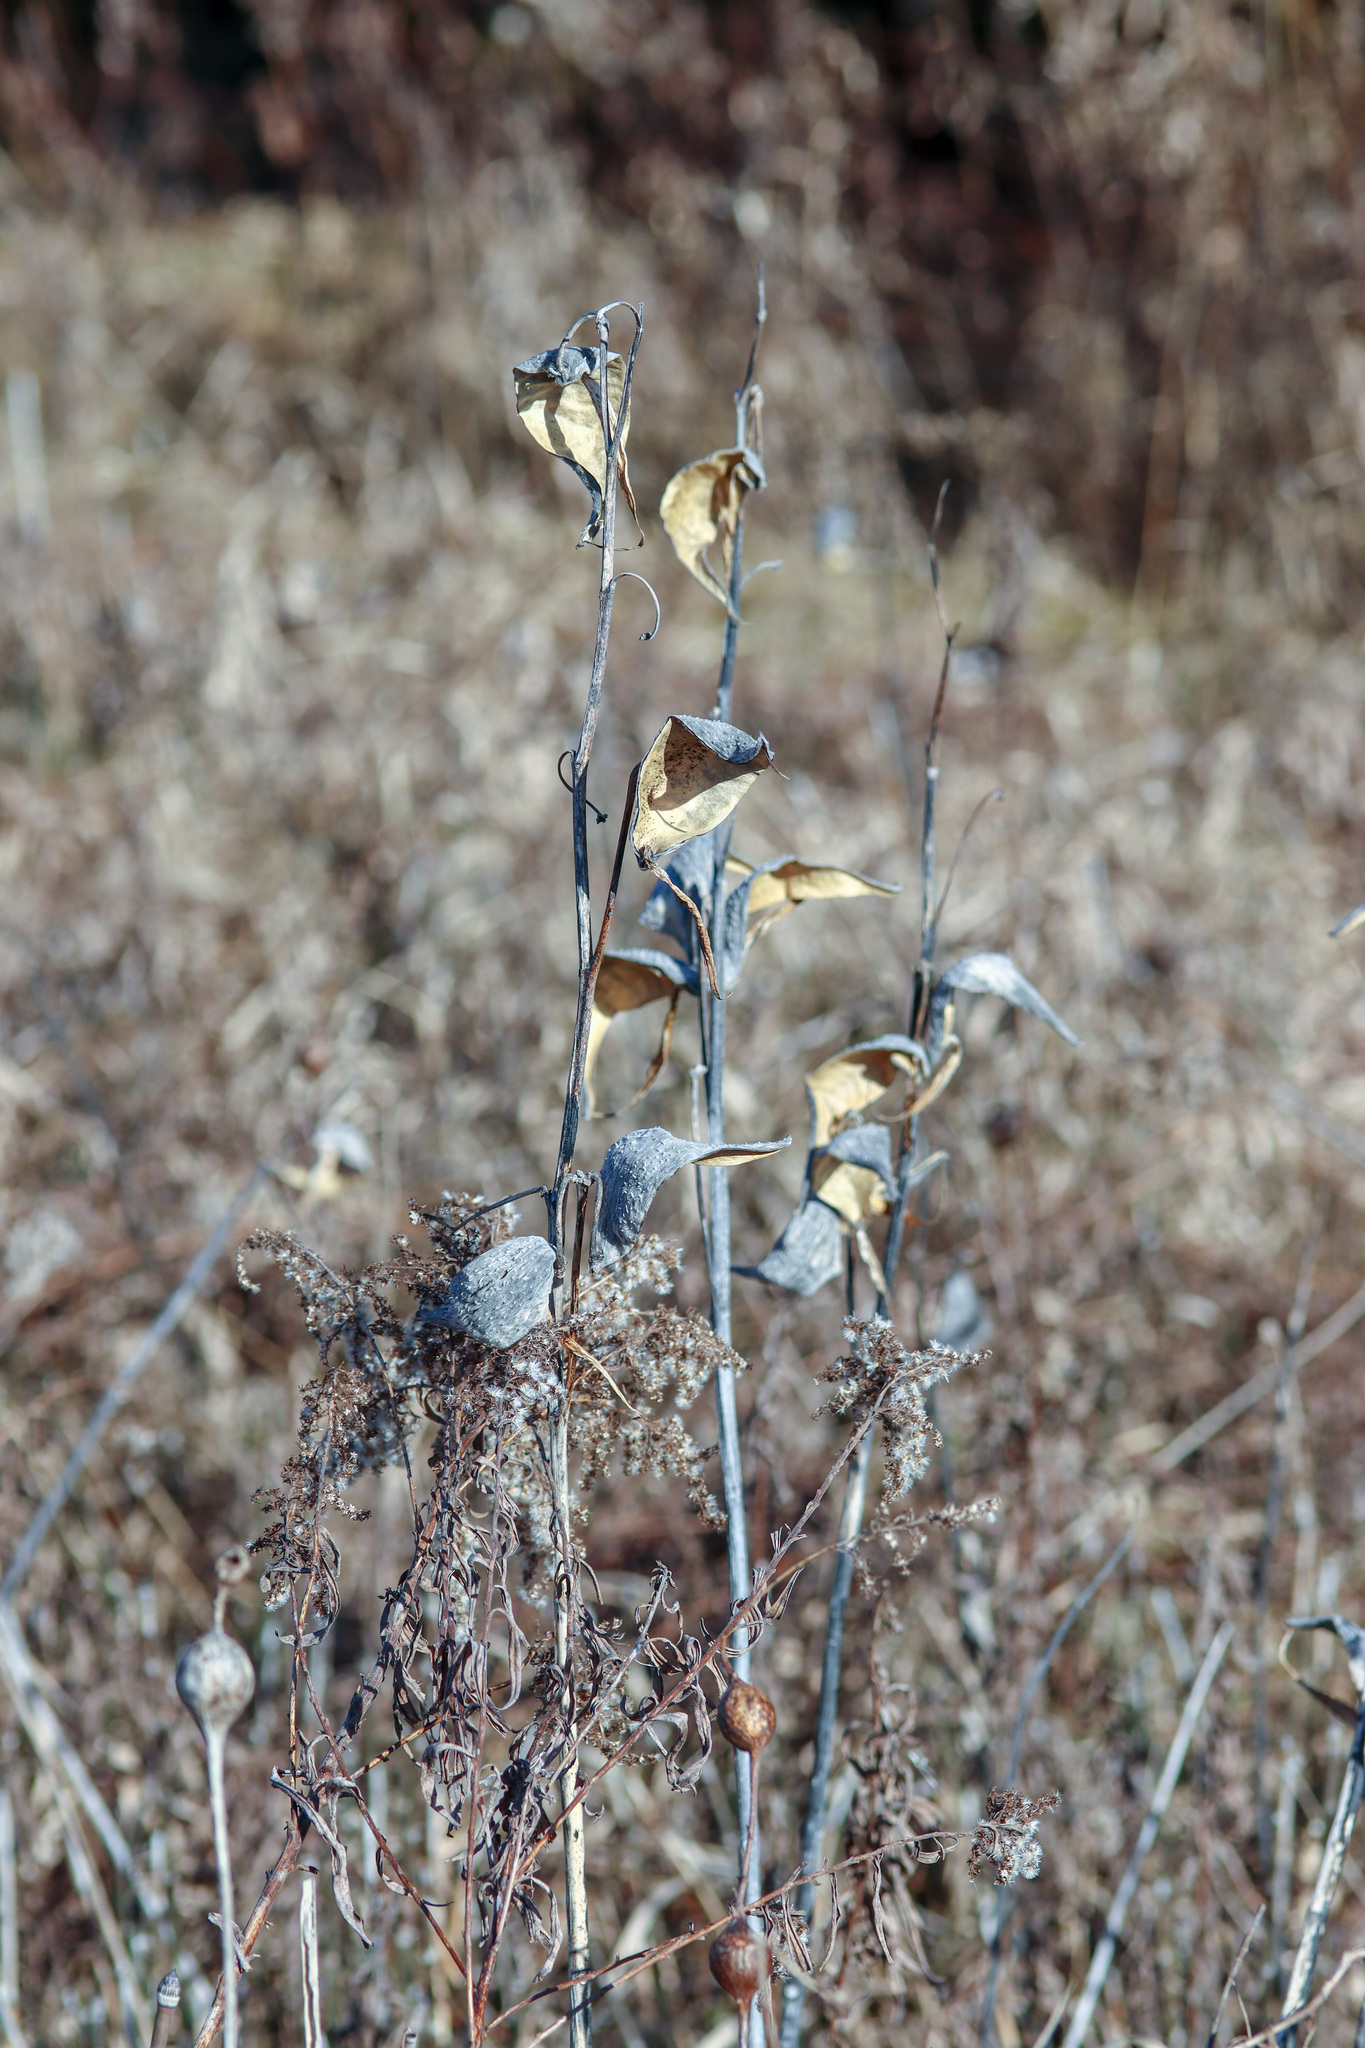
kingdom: Plantae
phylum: Tracheophyta
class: Magnoliopsida
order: Gentianales
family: Apocynaceae
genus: Asclepias
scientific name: Asclepias syriaca
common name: Common milkweed
